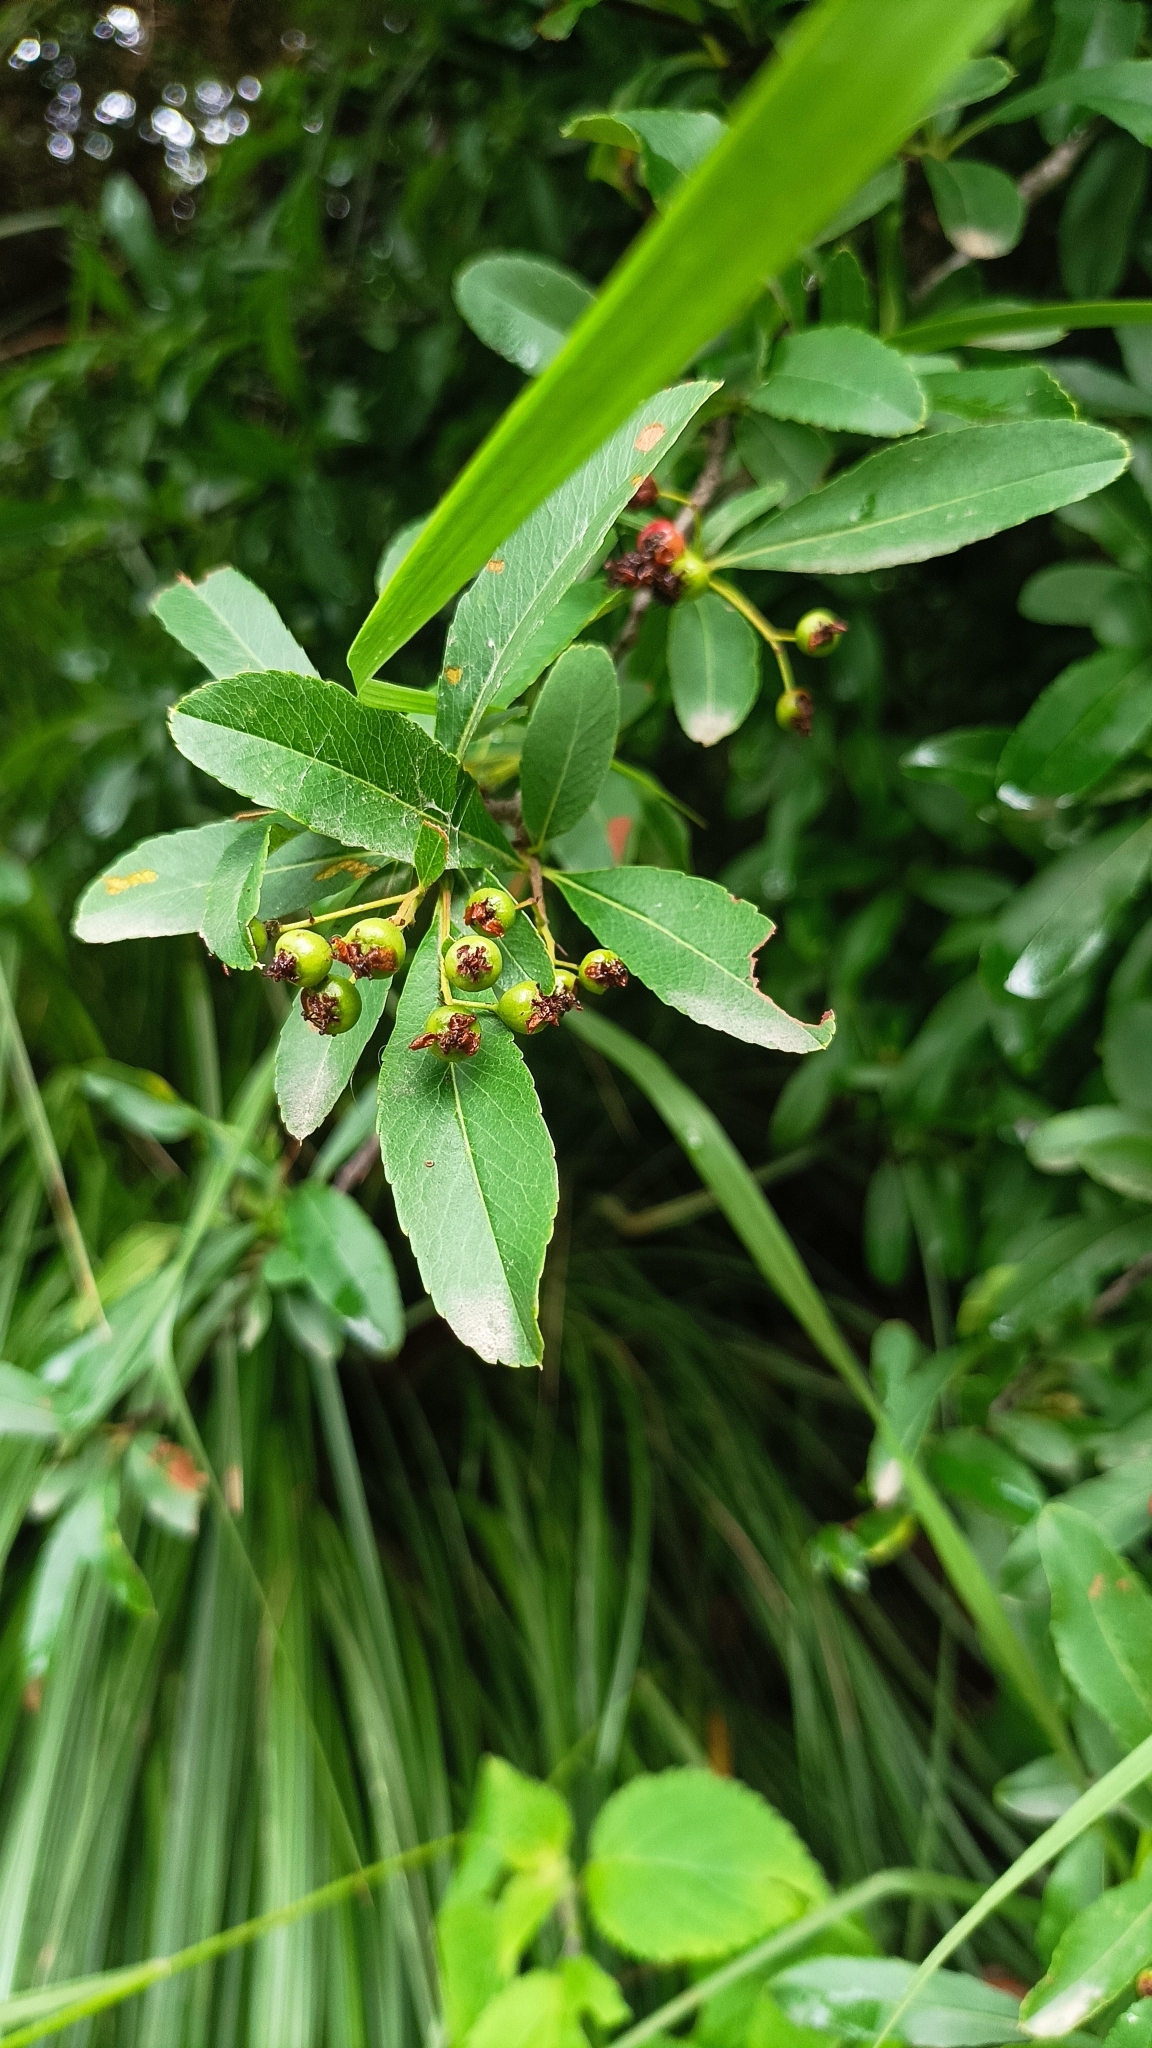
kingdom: Plantae
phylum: Tracheophyta
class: Magnoliopsida
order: Rosales
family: Rosaceae
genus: Pyracantha
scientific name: Pyracantha crenulata
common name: Nepalese firethorn
